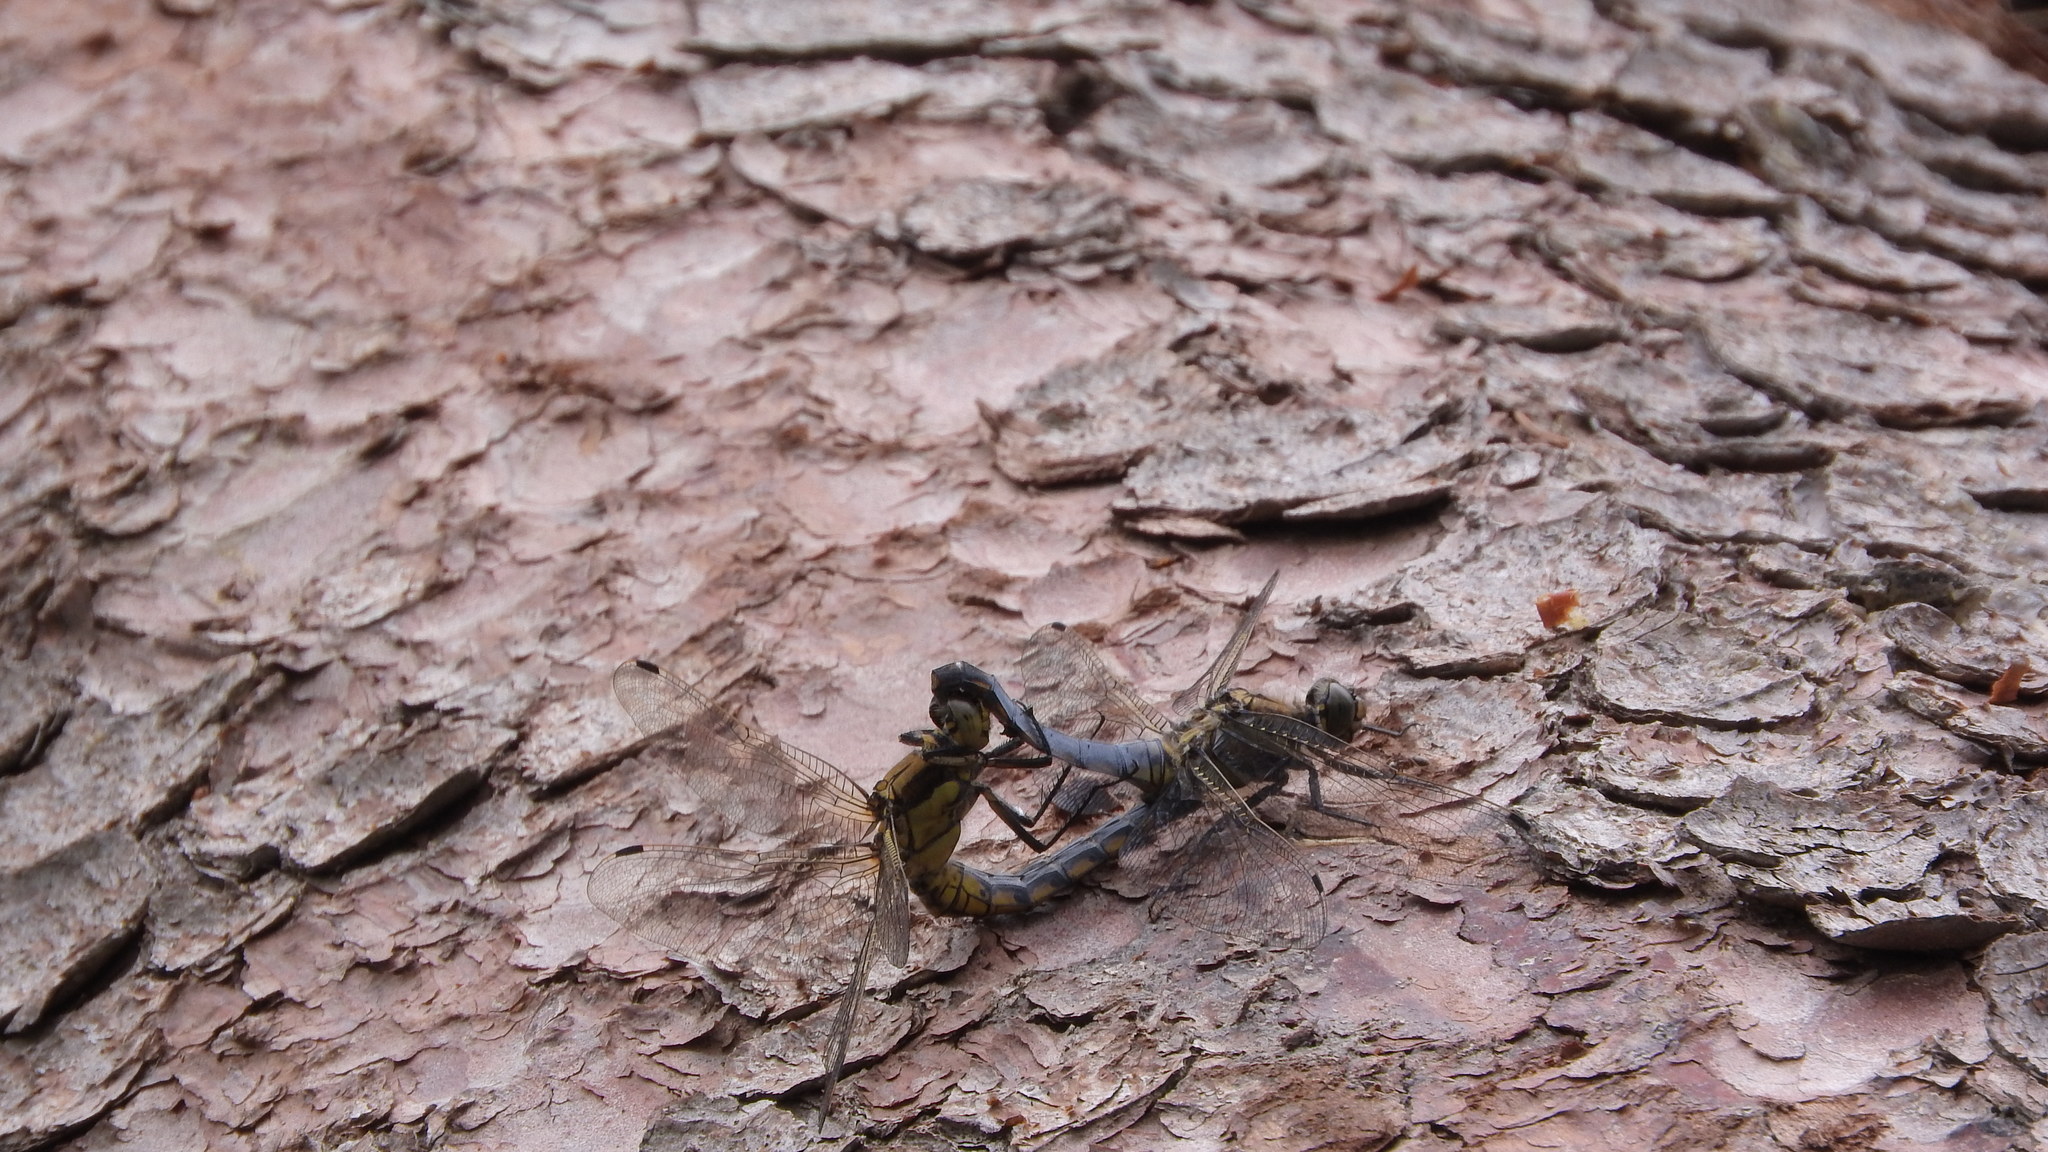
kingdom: Animalia
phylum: Arthropoda
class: Insecta
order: Odonata
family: Libellulidae
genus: Orthetrum
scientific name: Orthetrum cancellatum
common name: Black-tailed skimmer
